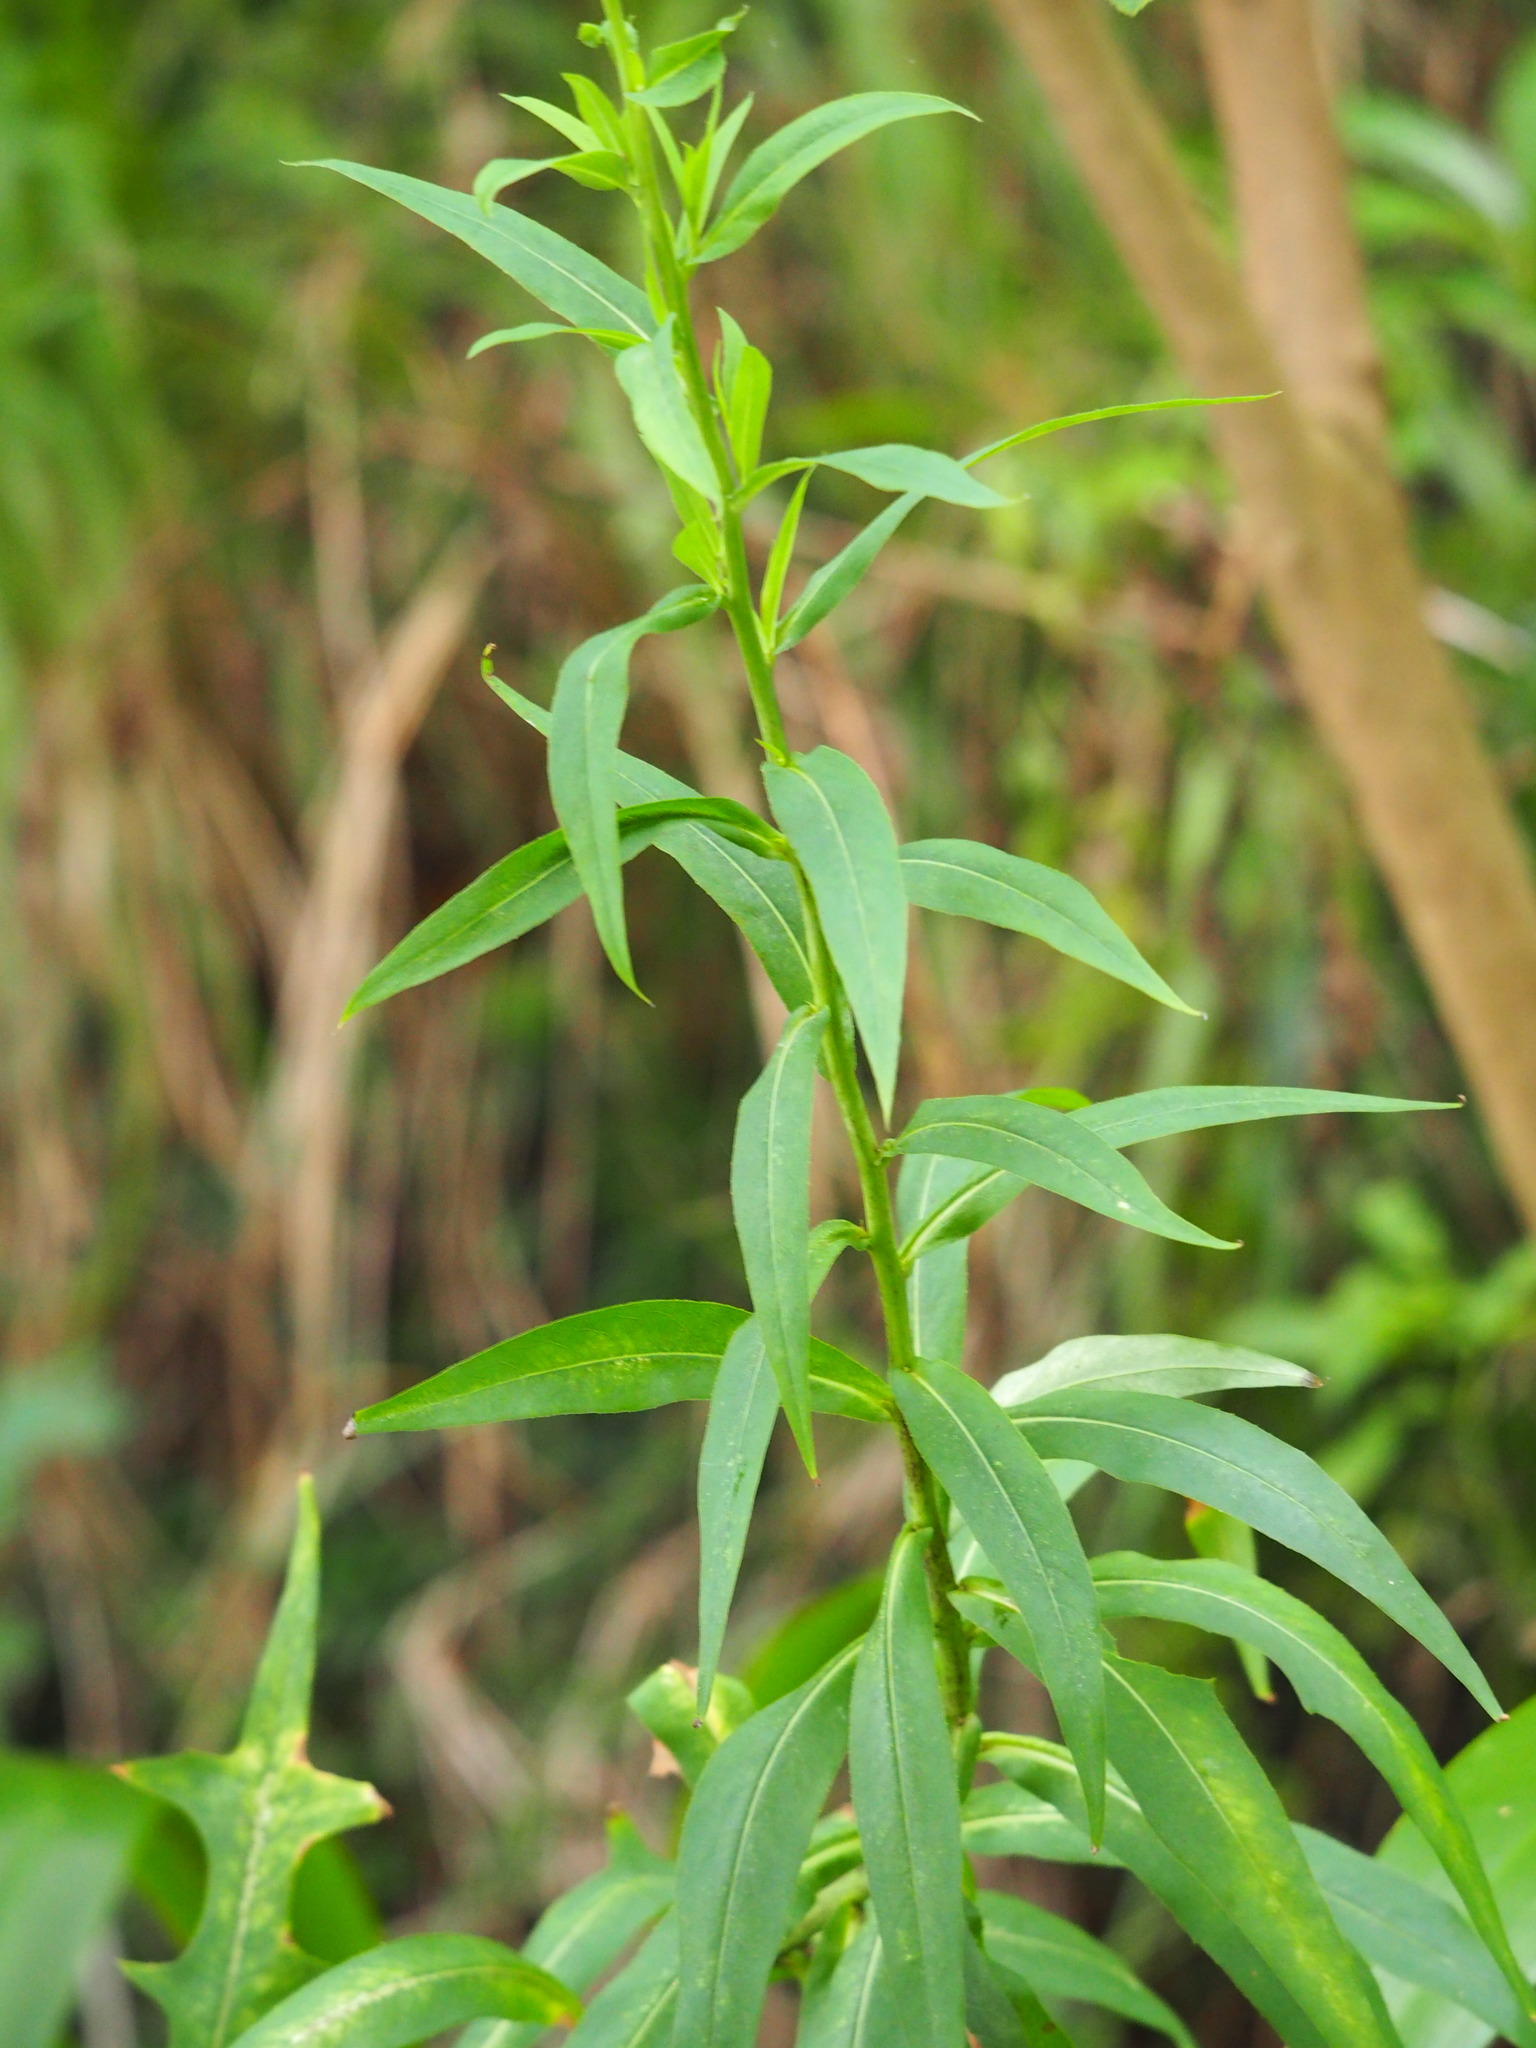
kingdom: Plantae
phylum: Tracheophyta
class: Magnoliopsida
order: Asterales
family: Asteraceae
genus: Lactuca
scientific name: Lactuca indica
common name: Wild lettuce
